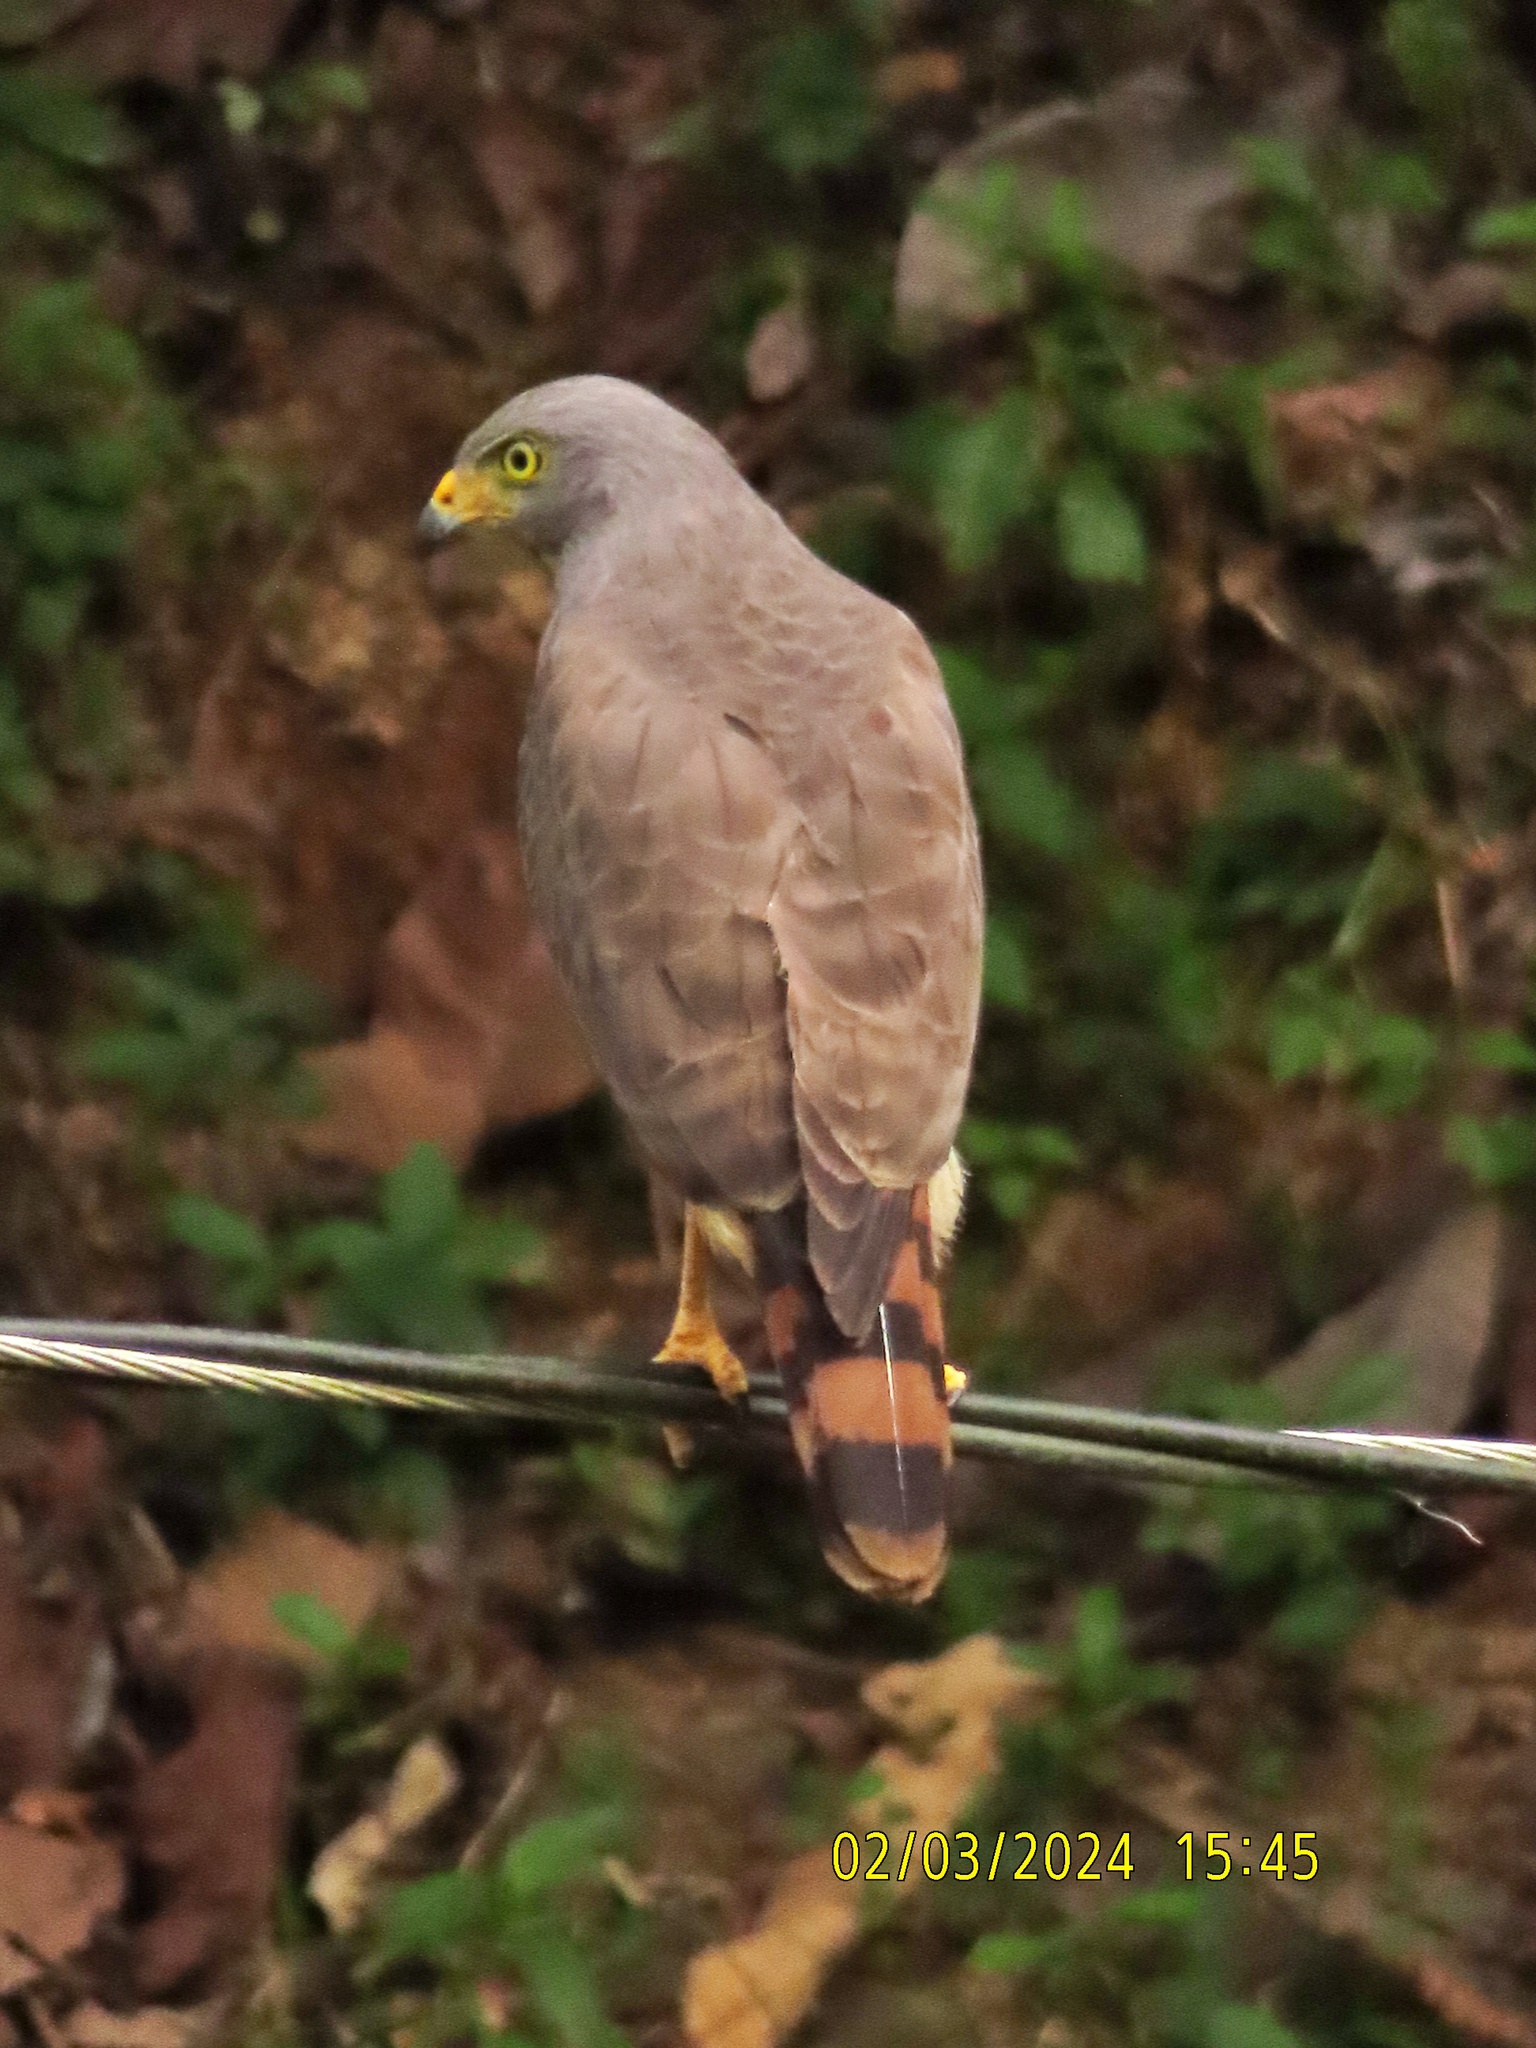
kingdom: Animalia
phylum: Chordata
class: Aves
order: Accipitriformes
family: Accipitridae
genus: Rupornis
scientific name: Rupornis magnirostris
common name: Roadside hawk
